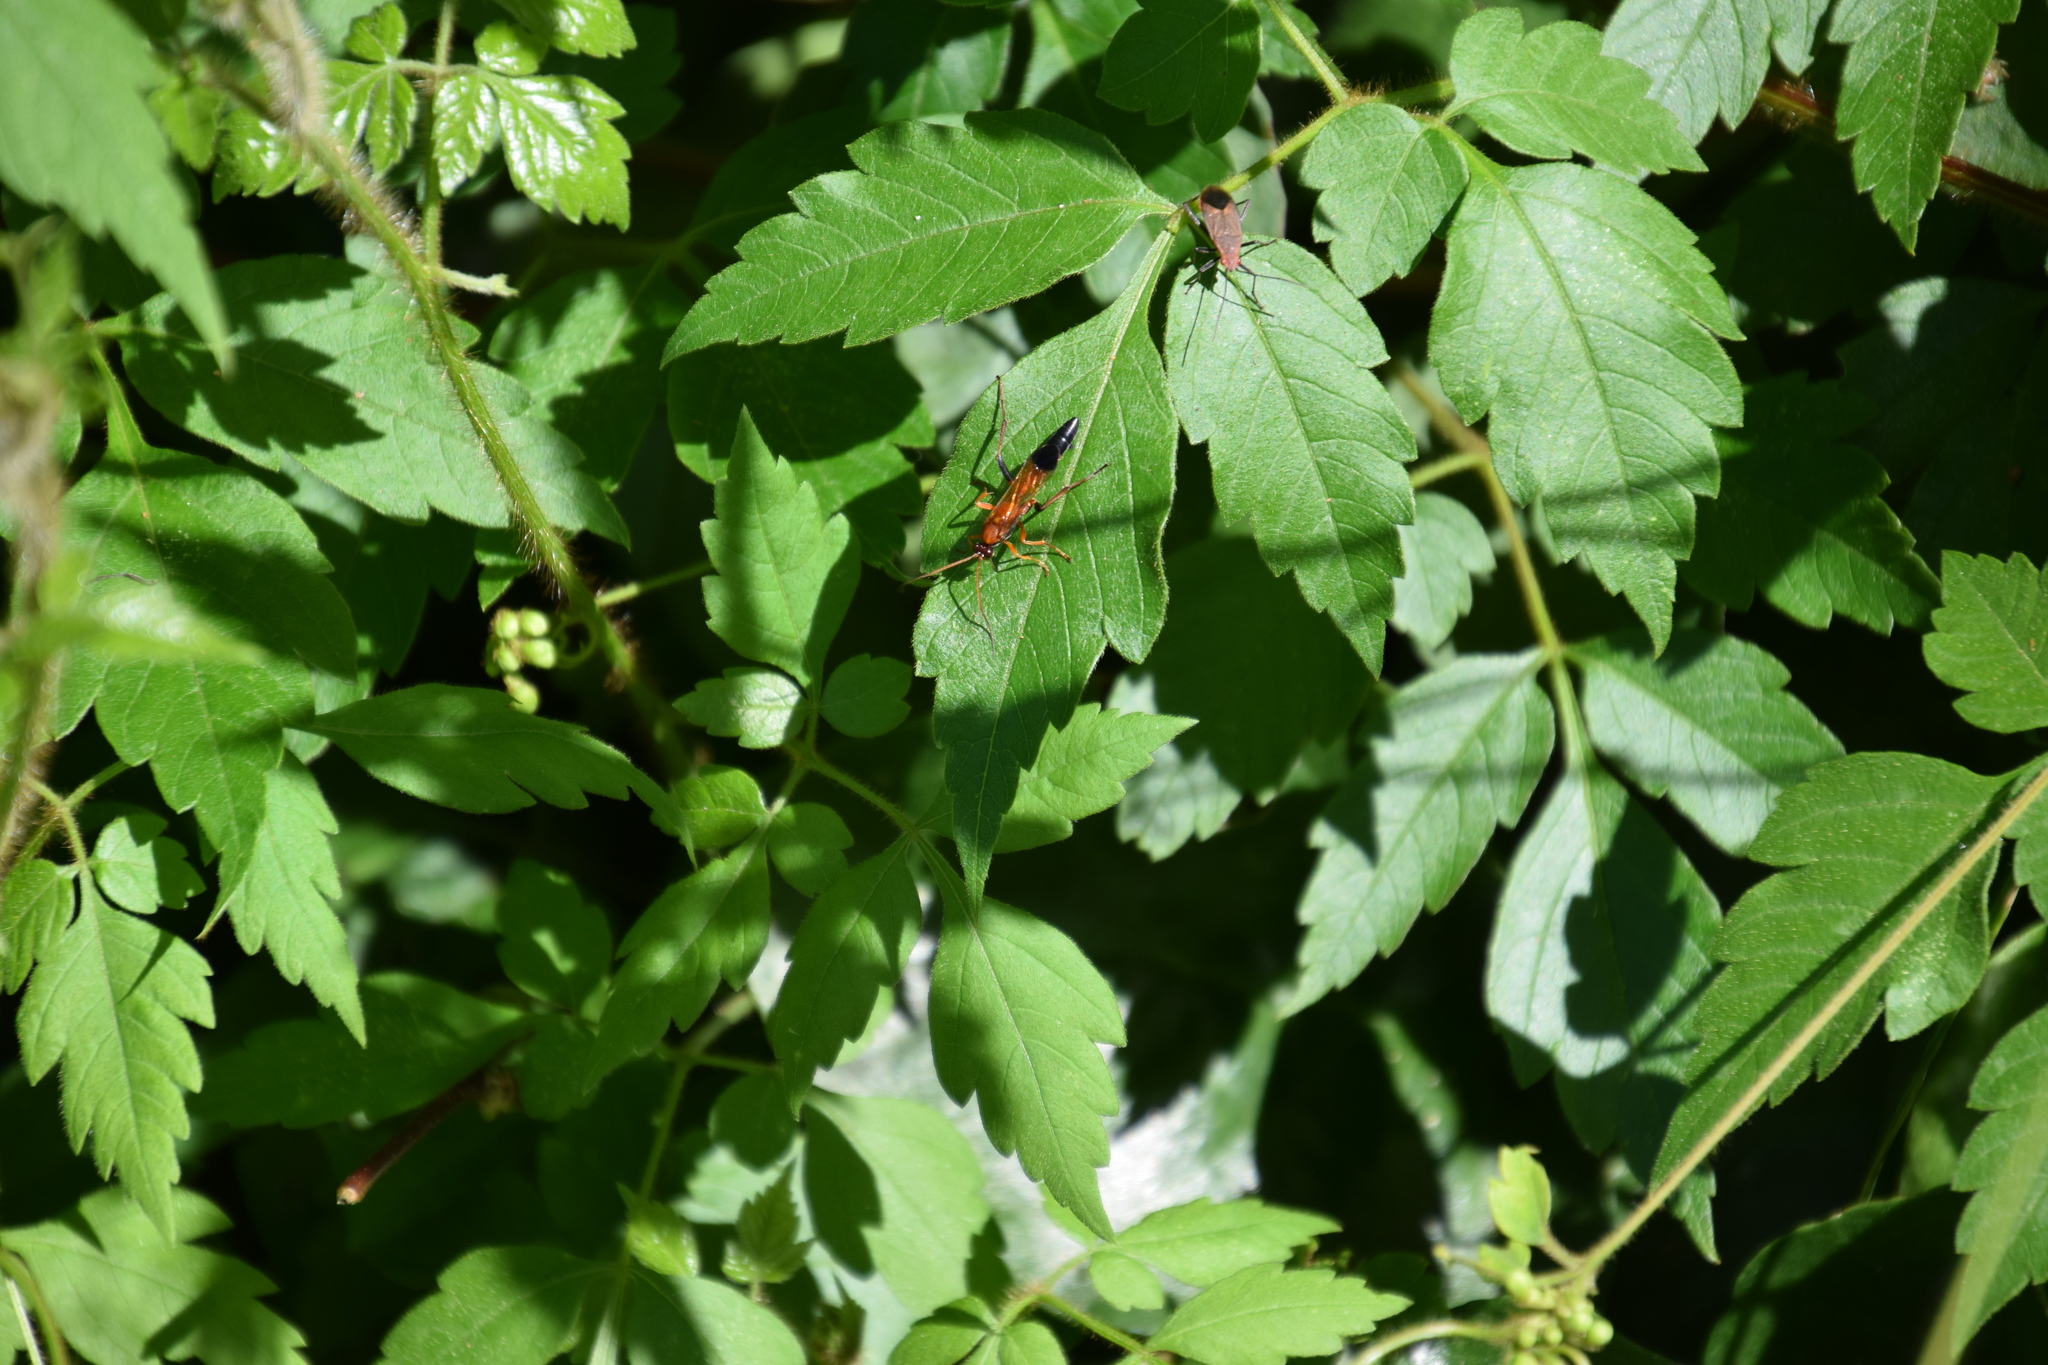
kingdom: Animalia
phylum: Arthropoda
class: Insecta
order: Hymenoptera
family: Ichneumonidae
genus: Ctenochares
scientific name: Ctenochares bicolorus
